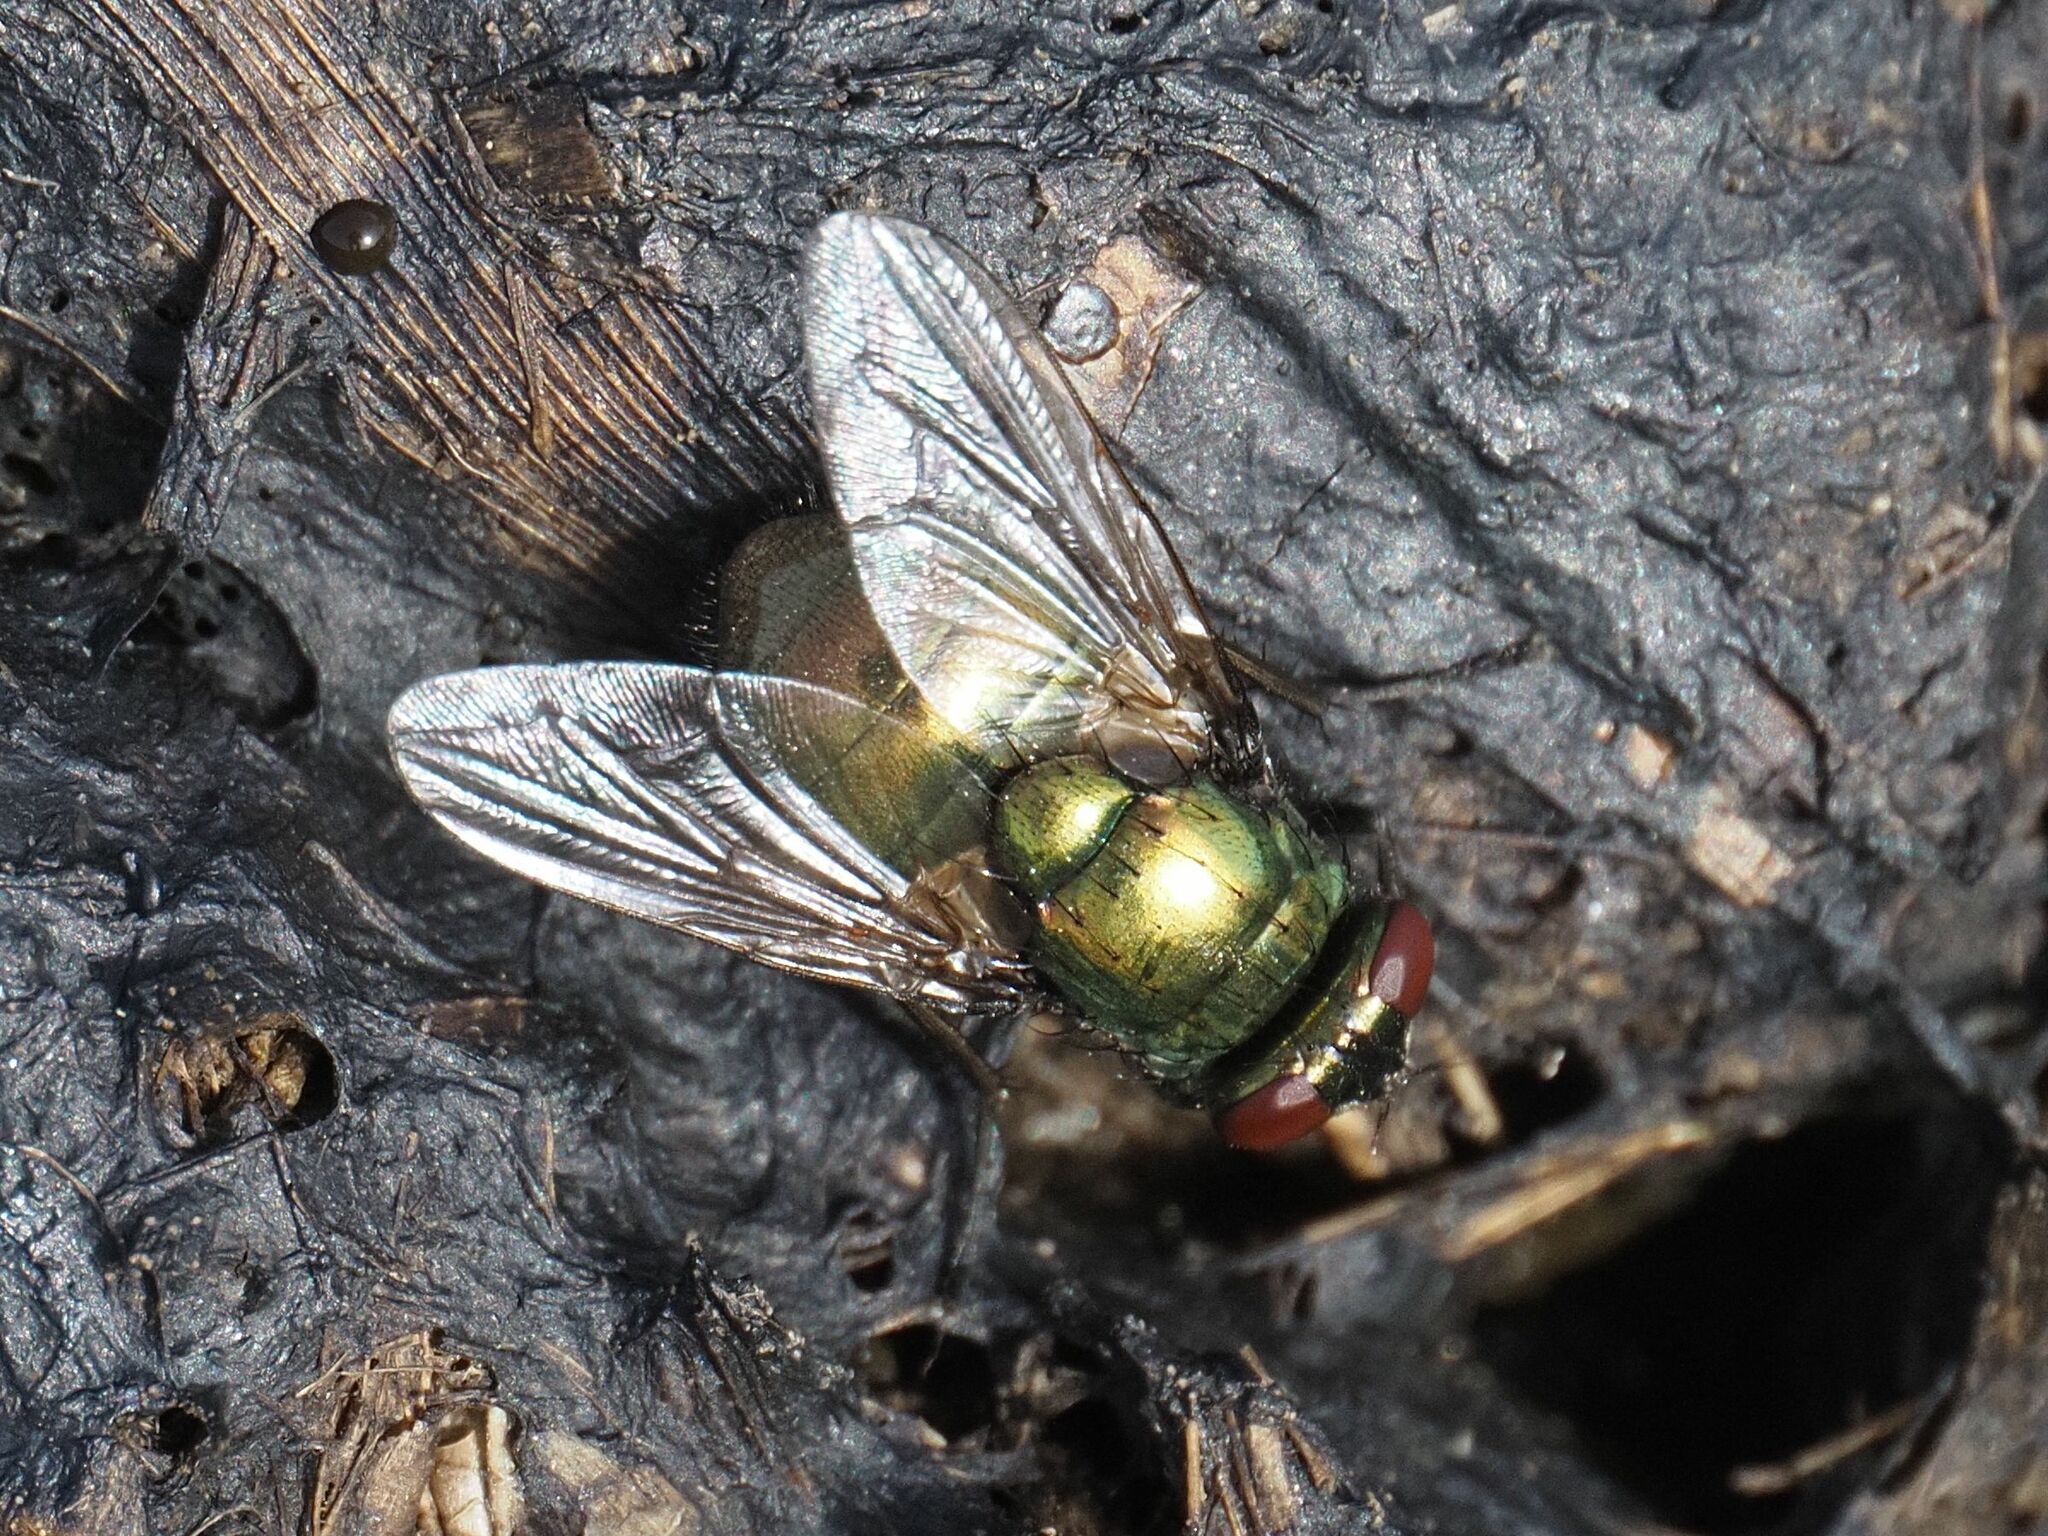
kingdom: Animalia
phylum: Arthropoda
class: Insecta
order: Diptera
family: Muscidae
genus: Neomyia
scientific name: Neomyia cornicina
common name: House fly
